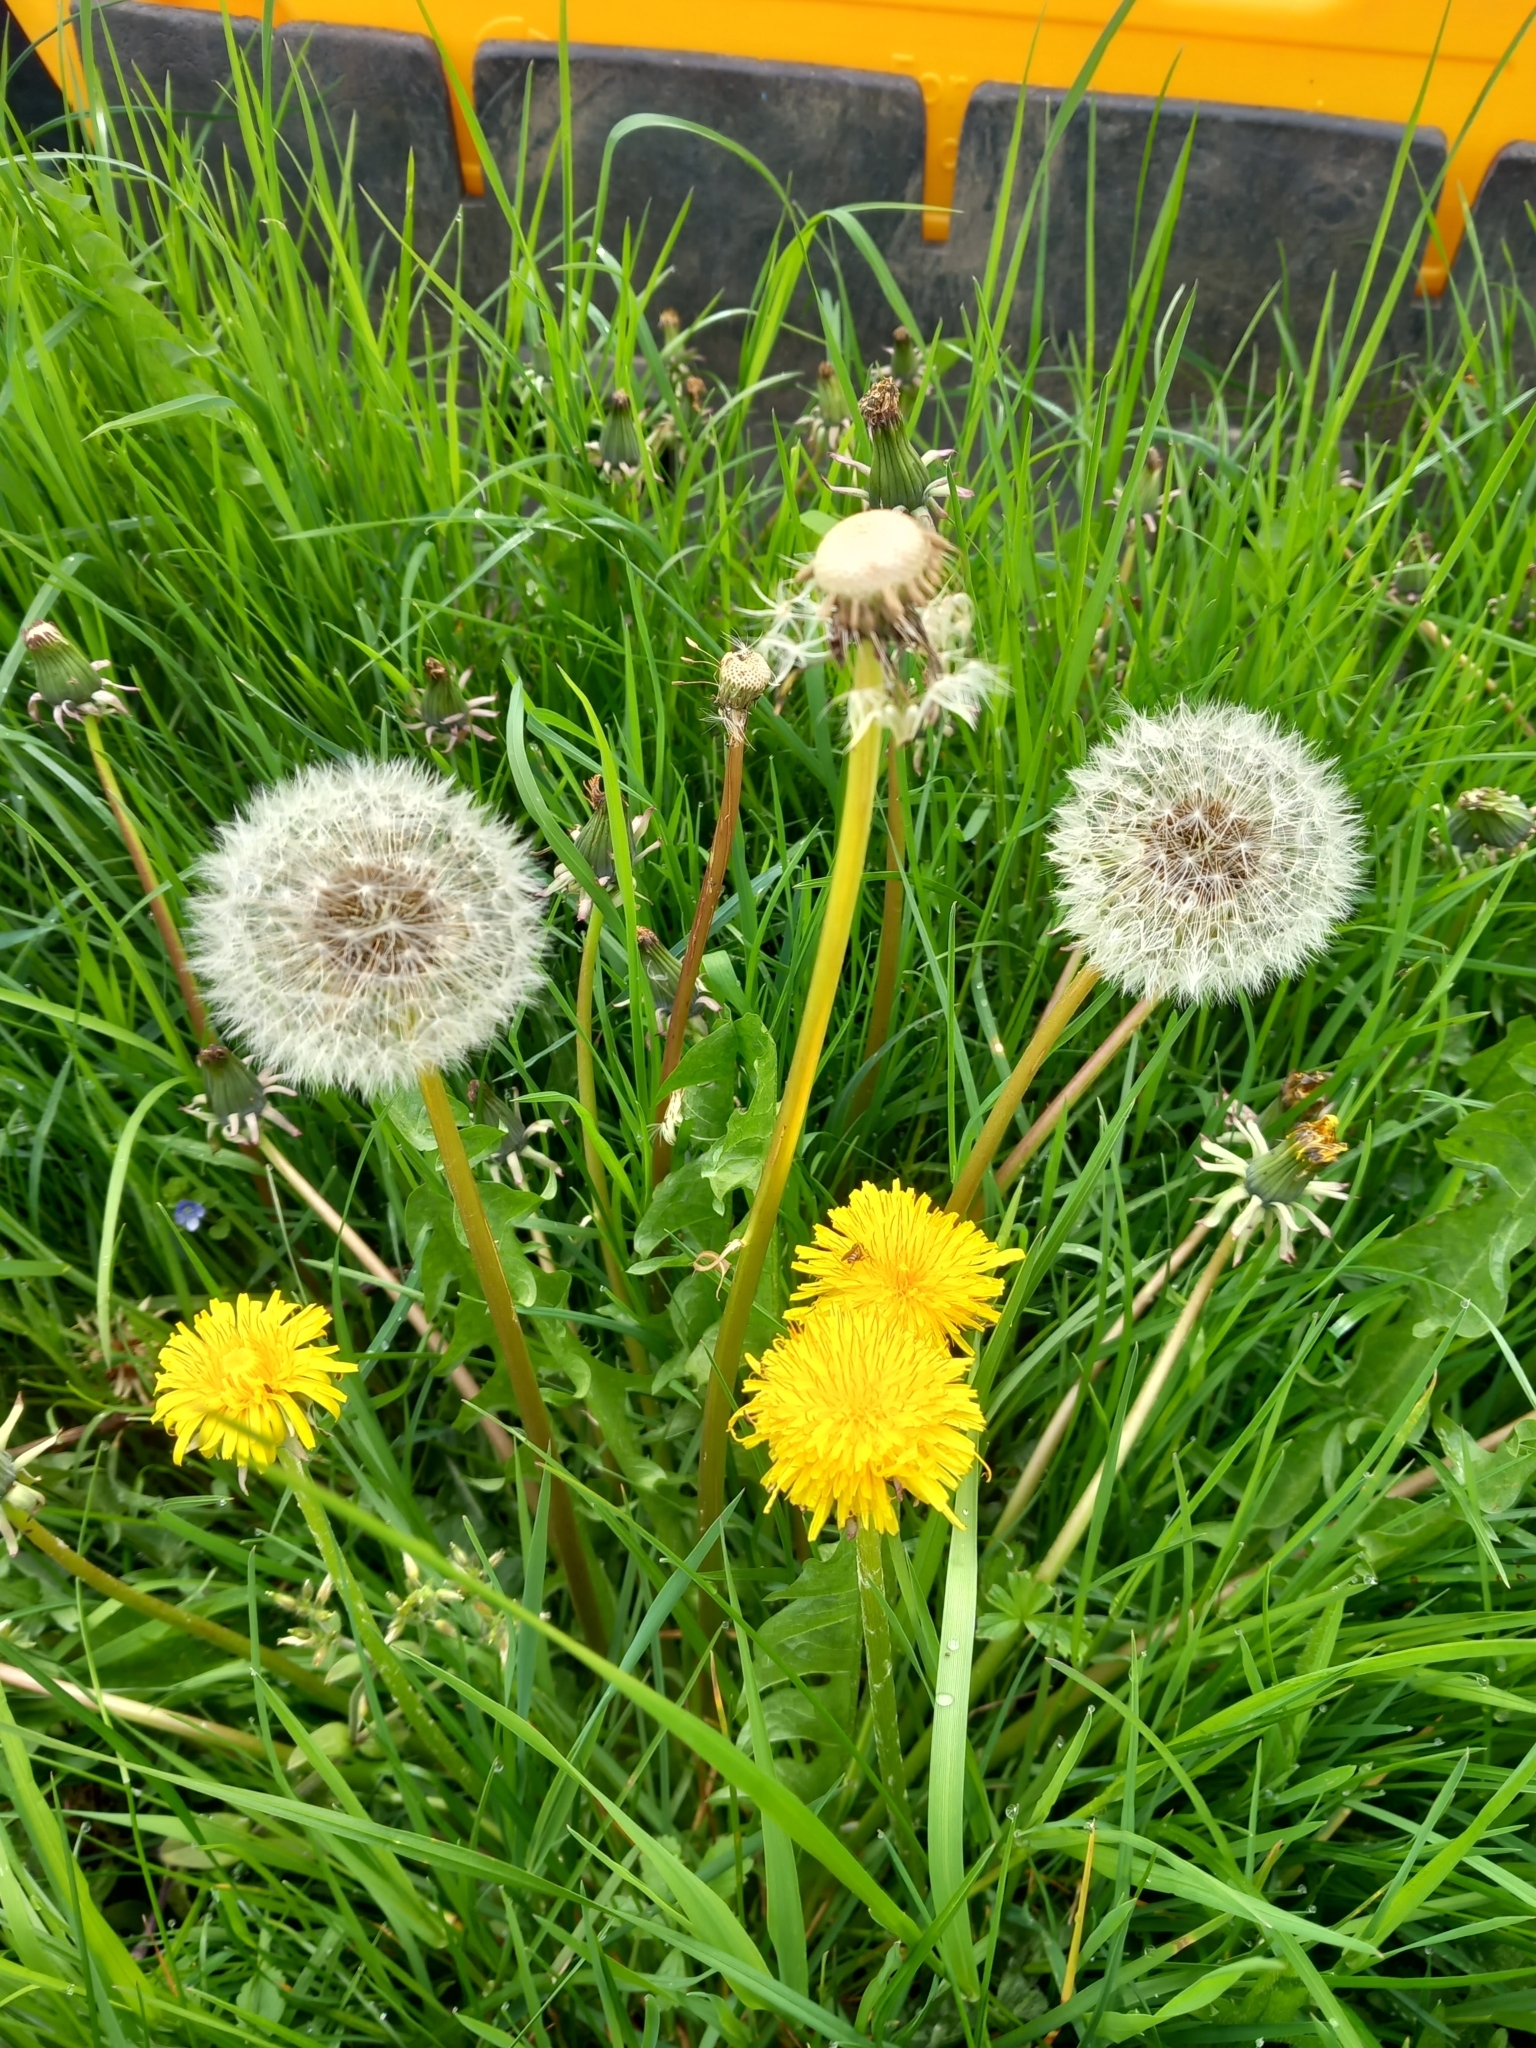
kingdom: Plantae
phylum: Tracheophyta
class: Magnoliopsida
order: Asterales
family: Asteraceae
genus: Taraxacum
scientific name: Taraxacum officinale
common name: Common dandelion
